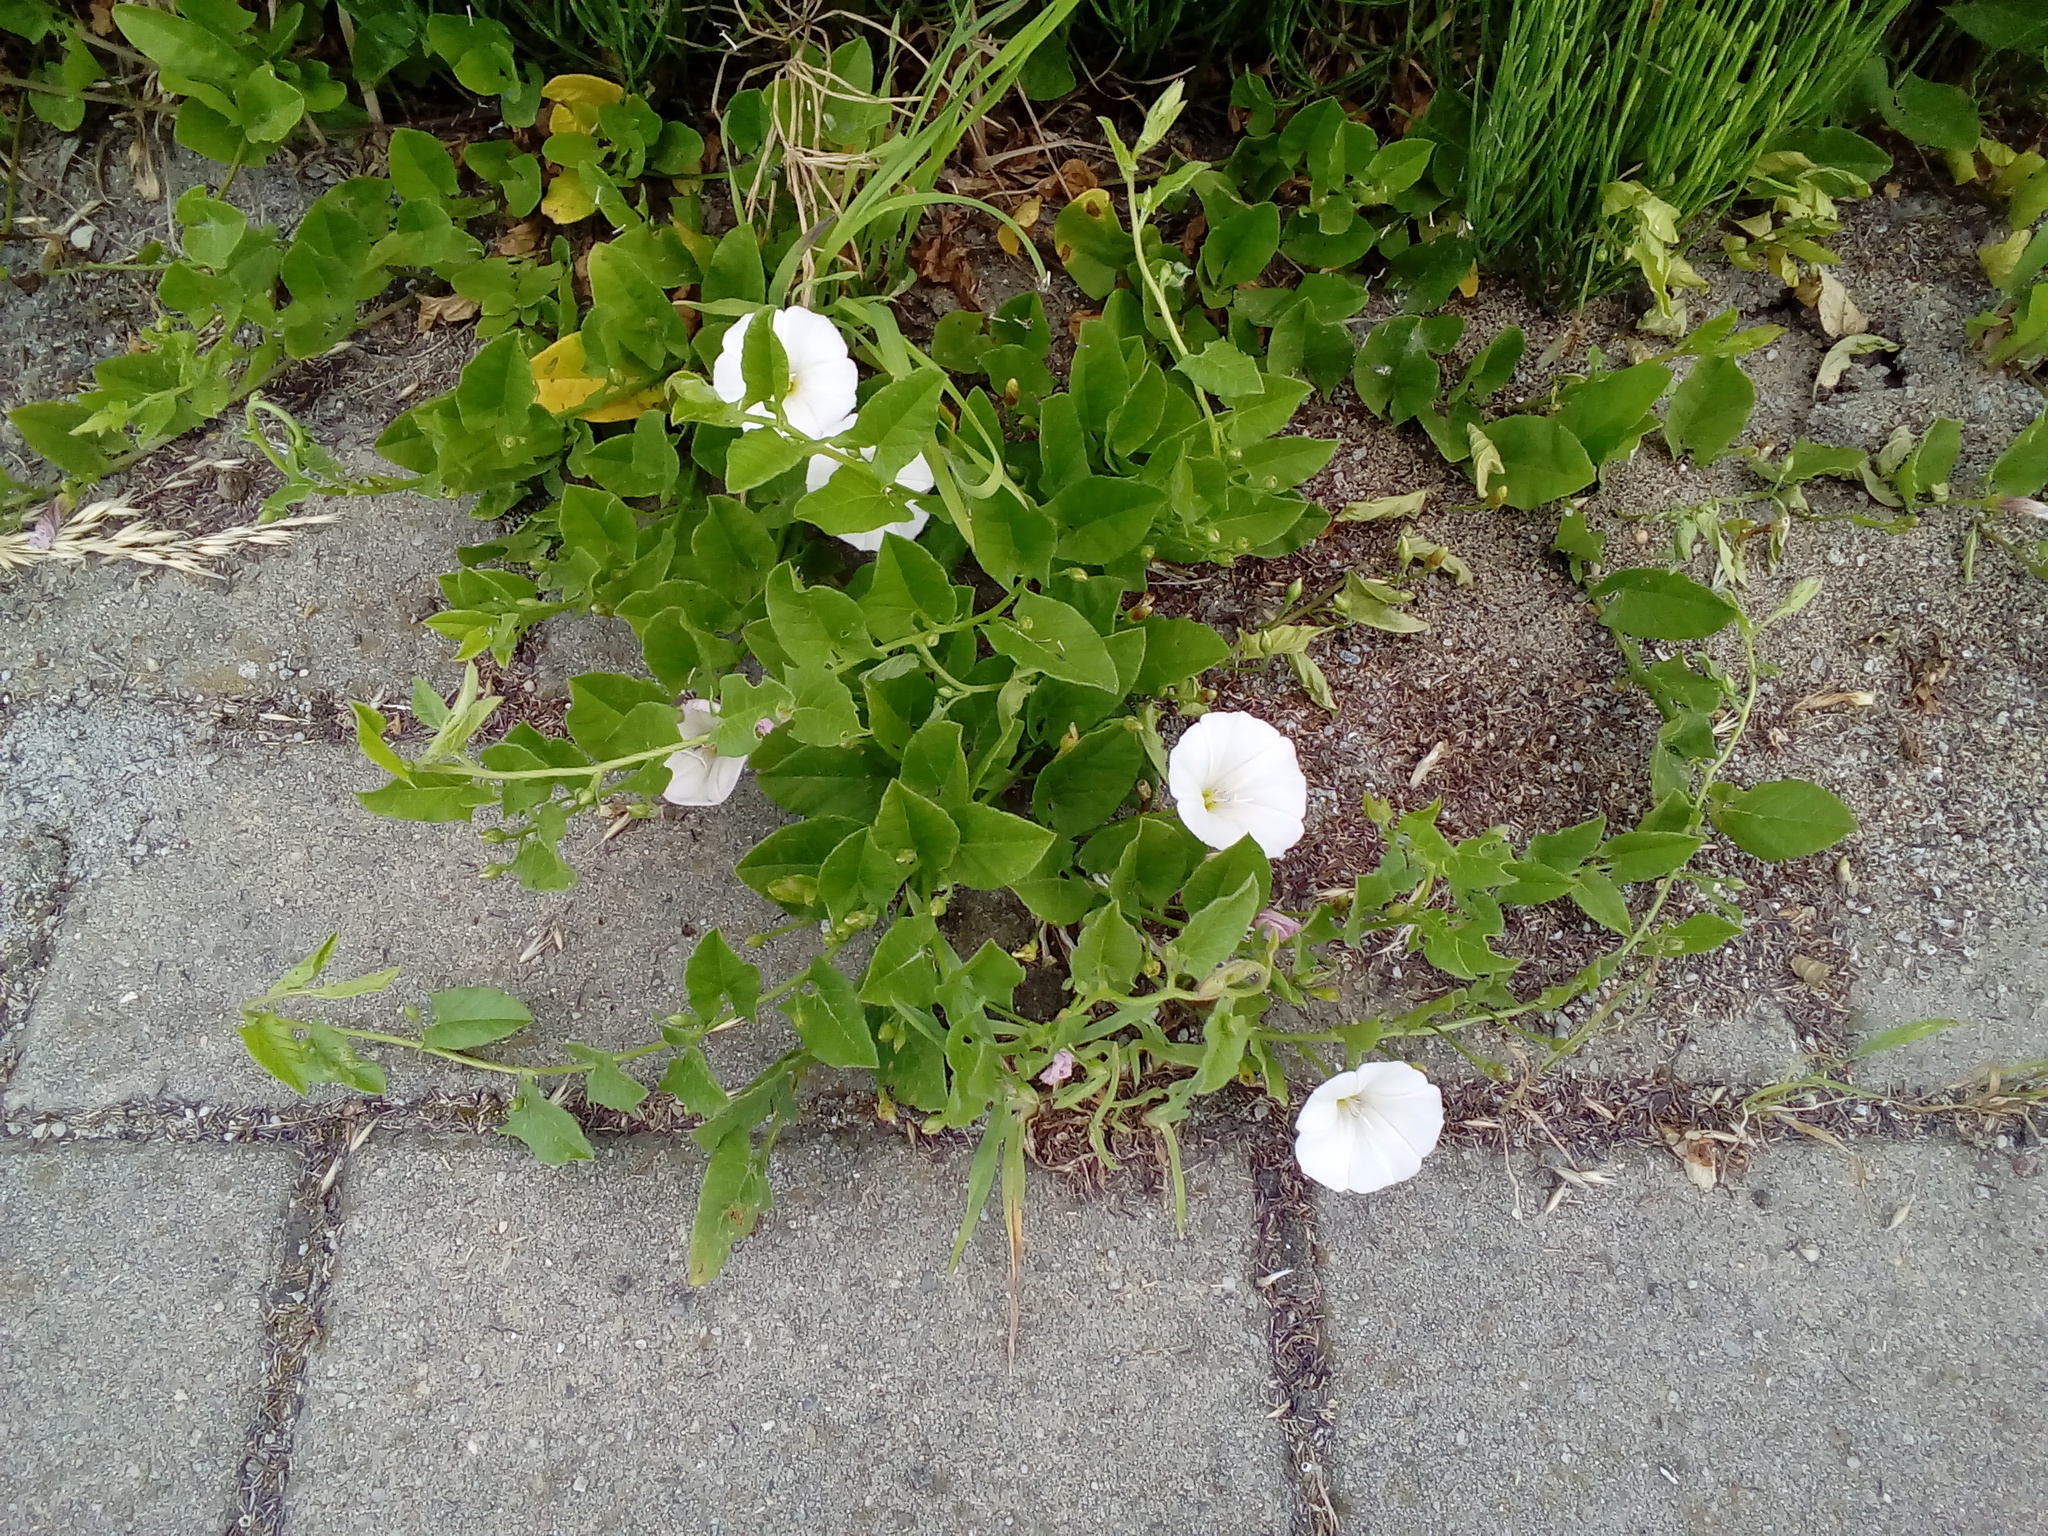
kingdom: Plantae
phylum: Tracheophyta
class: Magnoliopsida
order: Solanales
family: Convolvulaceae
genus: Convolvulus
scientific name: Convolvulus arvensis
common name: Field bindweed
